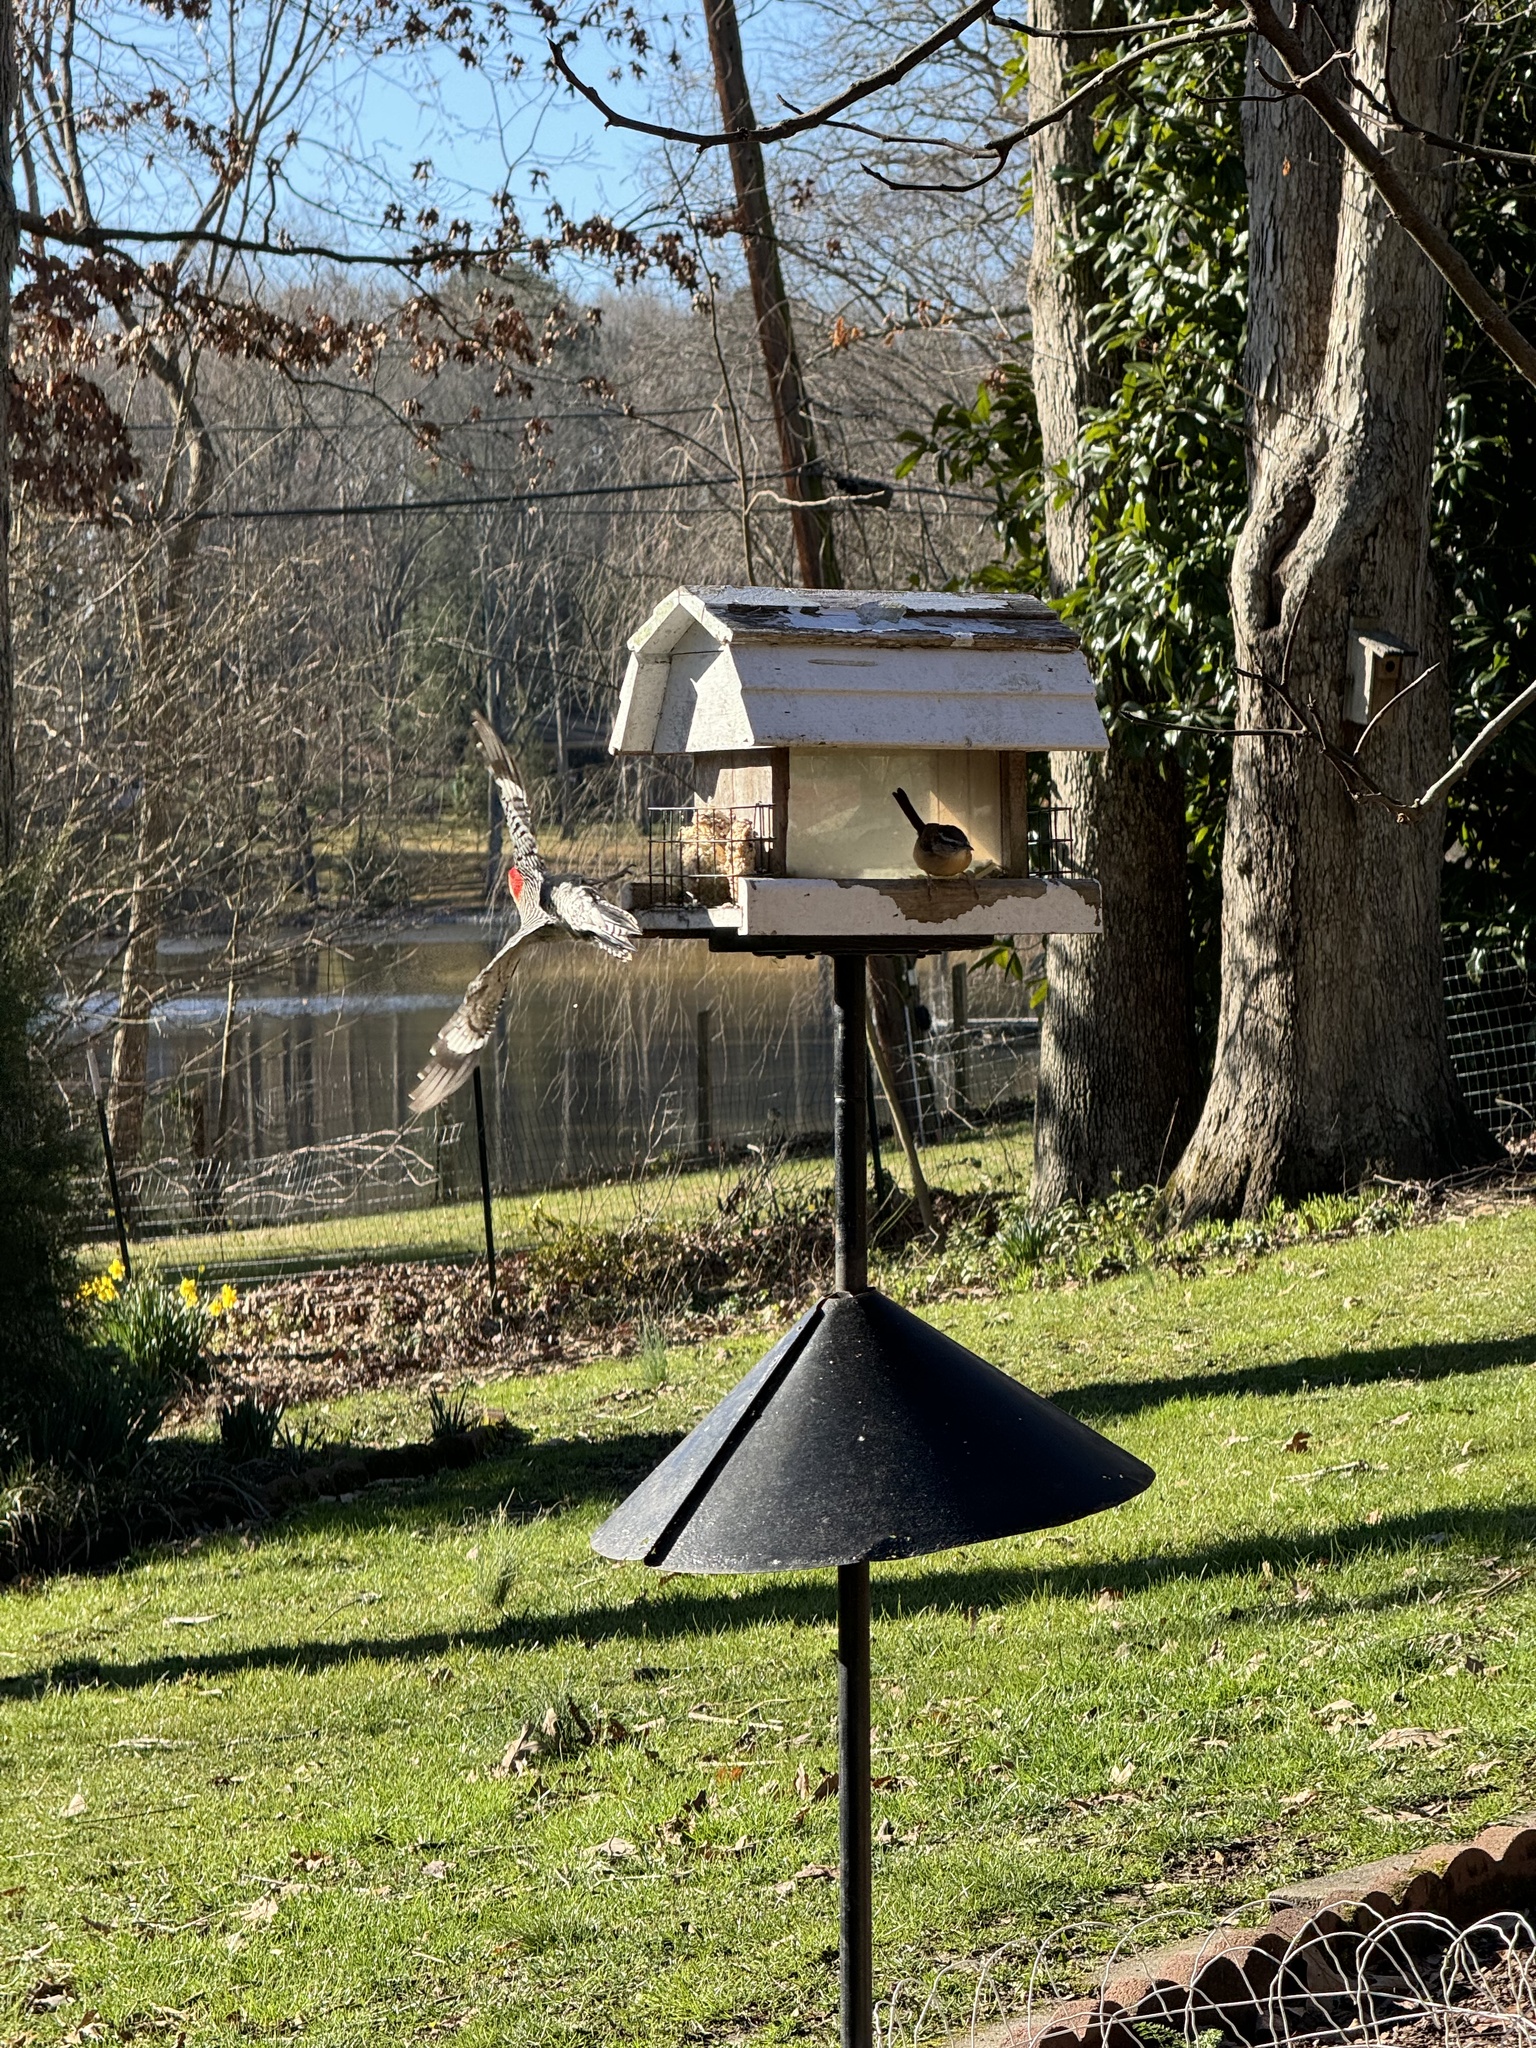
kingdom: Animalia
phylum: Chordata
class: Aves
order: Piciformes
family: Picidae
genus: Melanerpes
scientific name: Melanerpes carolinus
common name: Red-bellied woodpecker
